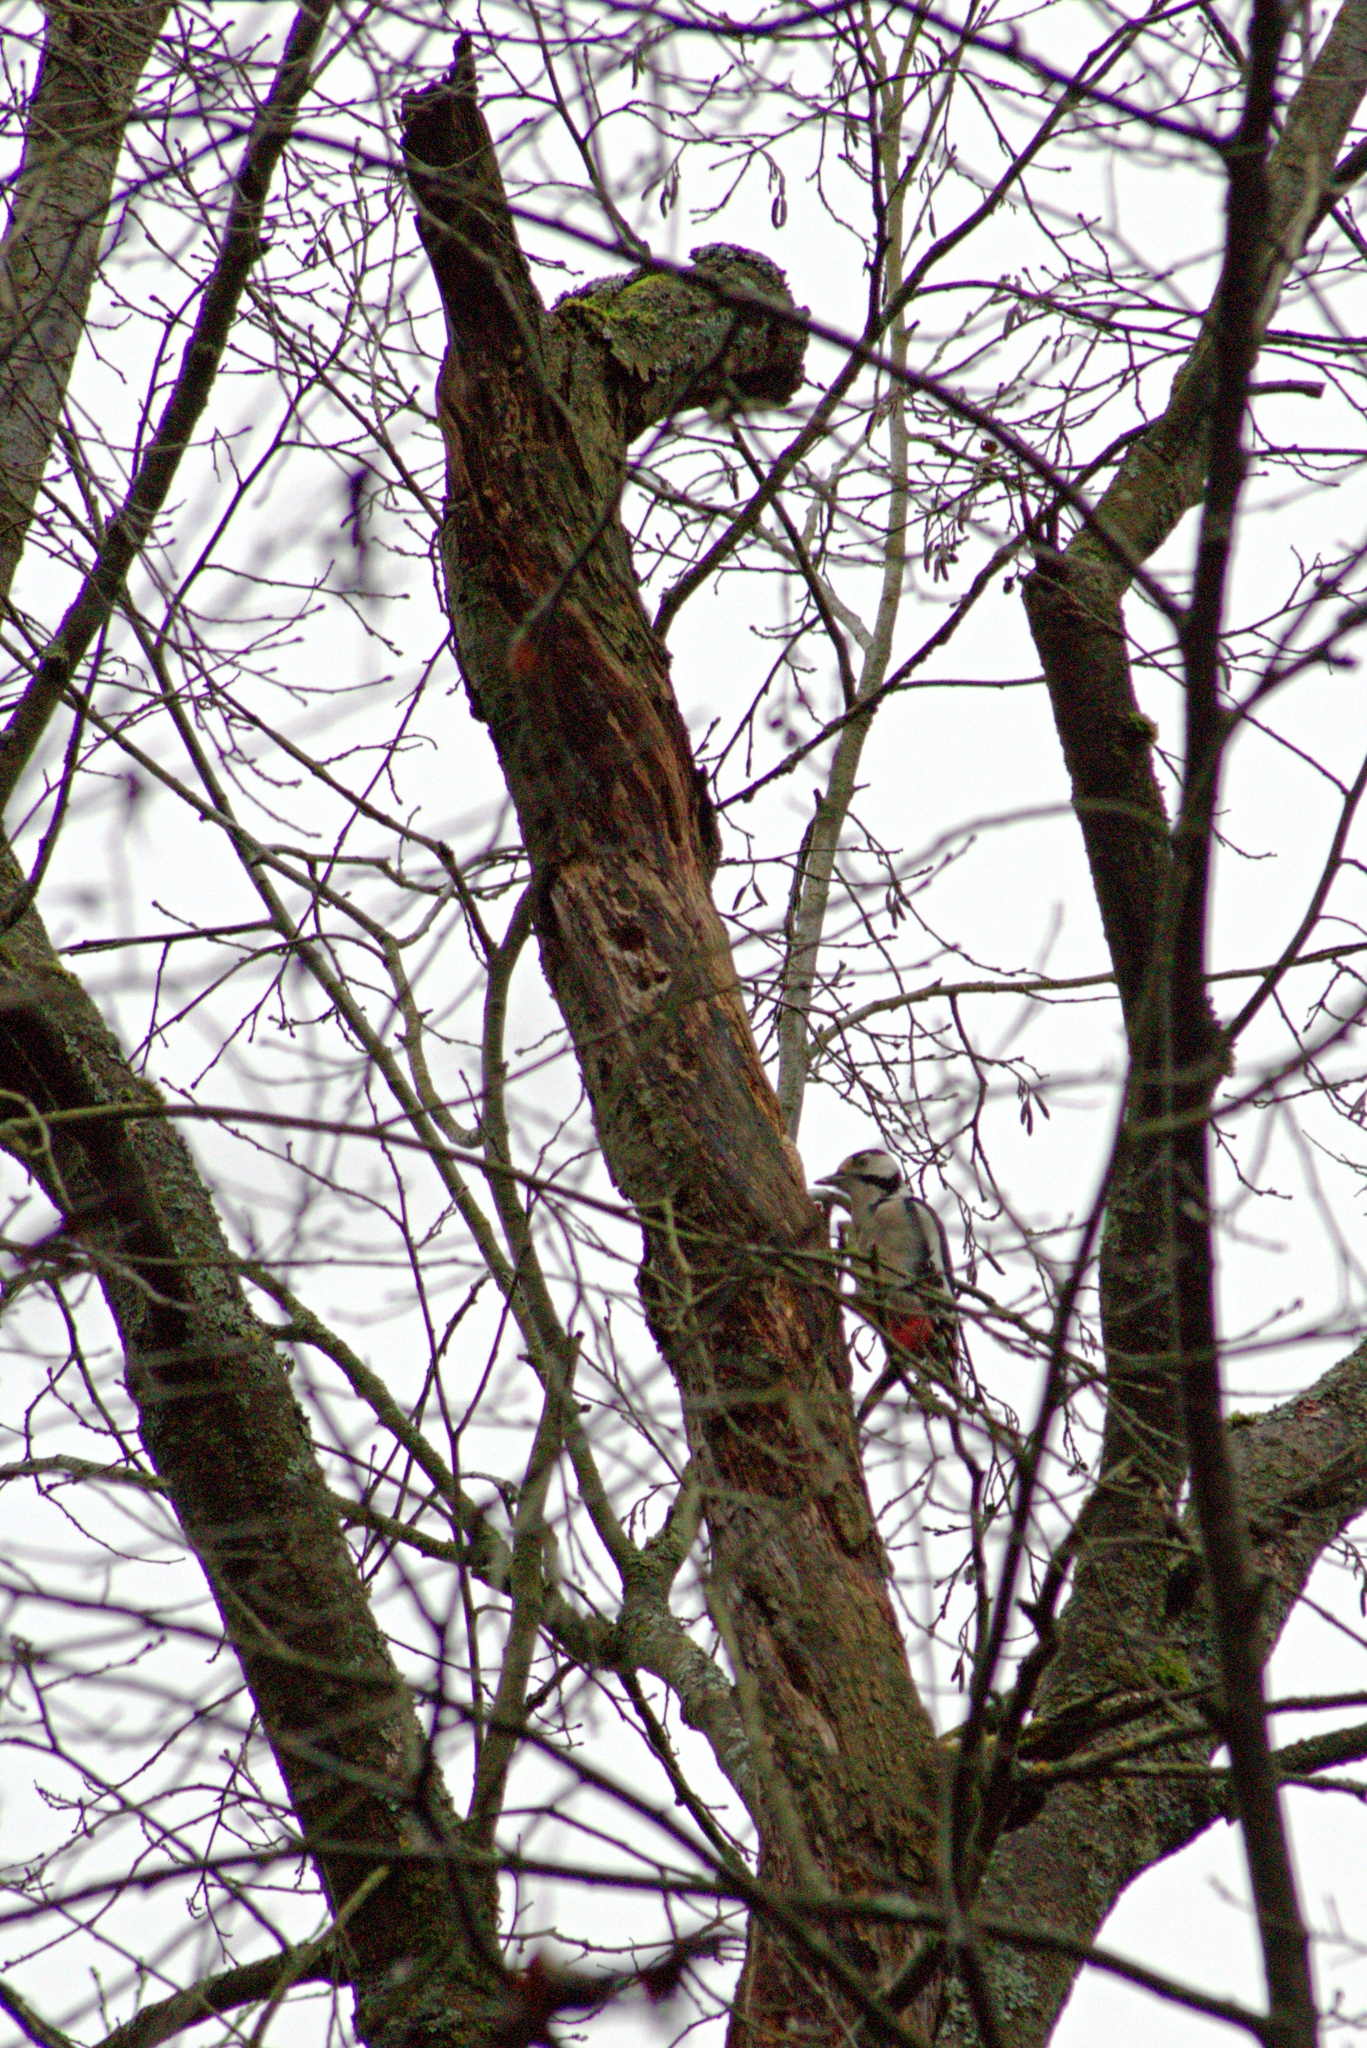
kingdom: Animalia
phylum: Chordata
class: Aves
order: Piciformes
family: Picidae
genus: Dendrocopos
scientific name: Dendrocopos major
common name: Great spotted woodpecker
